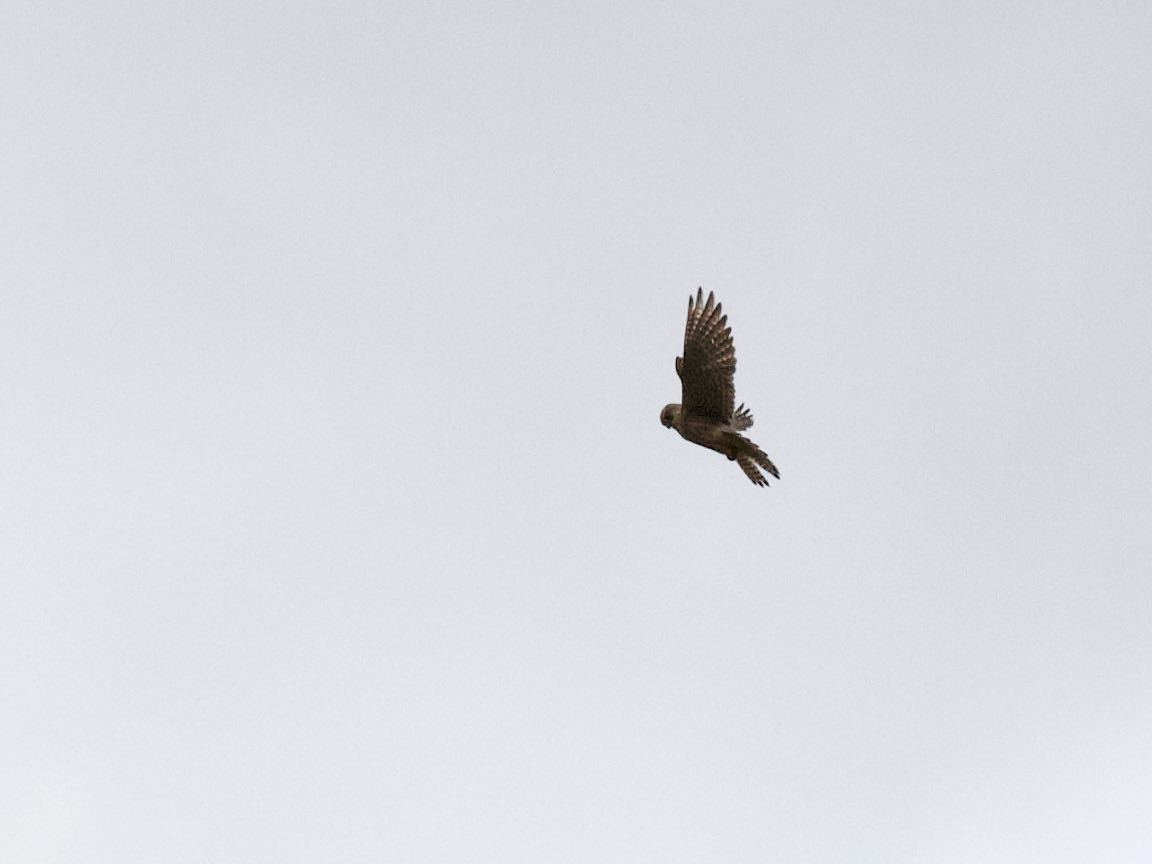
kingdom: Animalia
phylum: Chordata
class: Aves
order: Falconiformes
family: Falconidae
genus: Falco
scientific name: Falco tinnunculus
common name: Common kestrel
